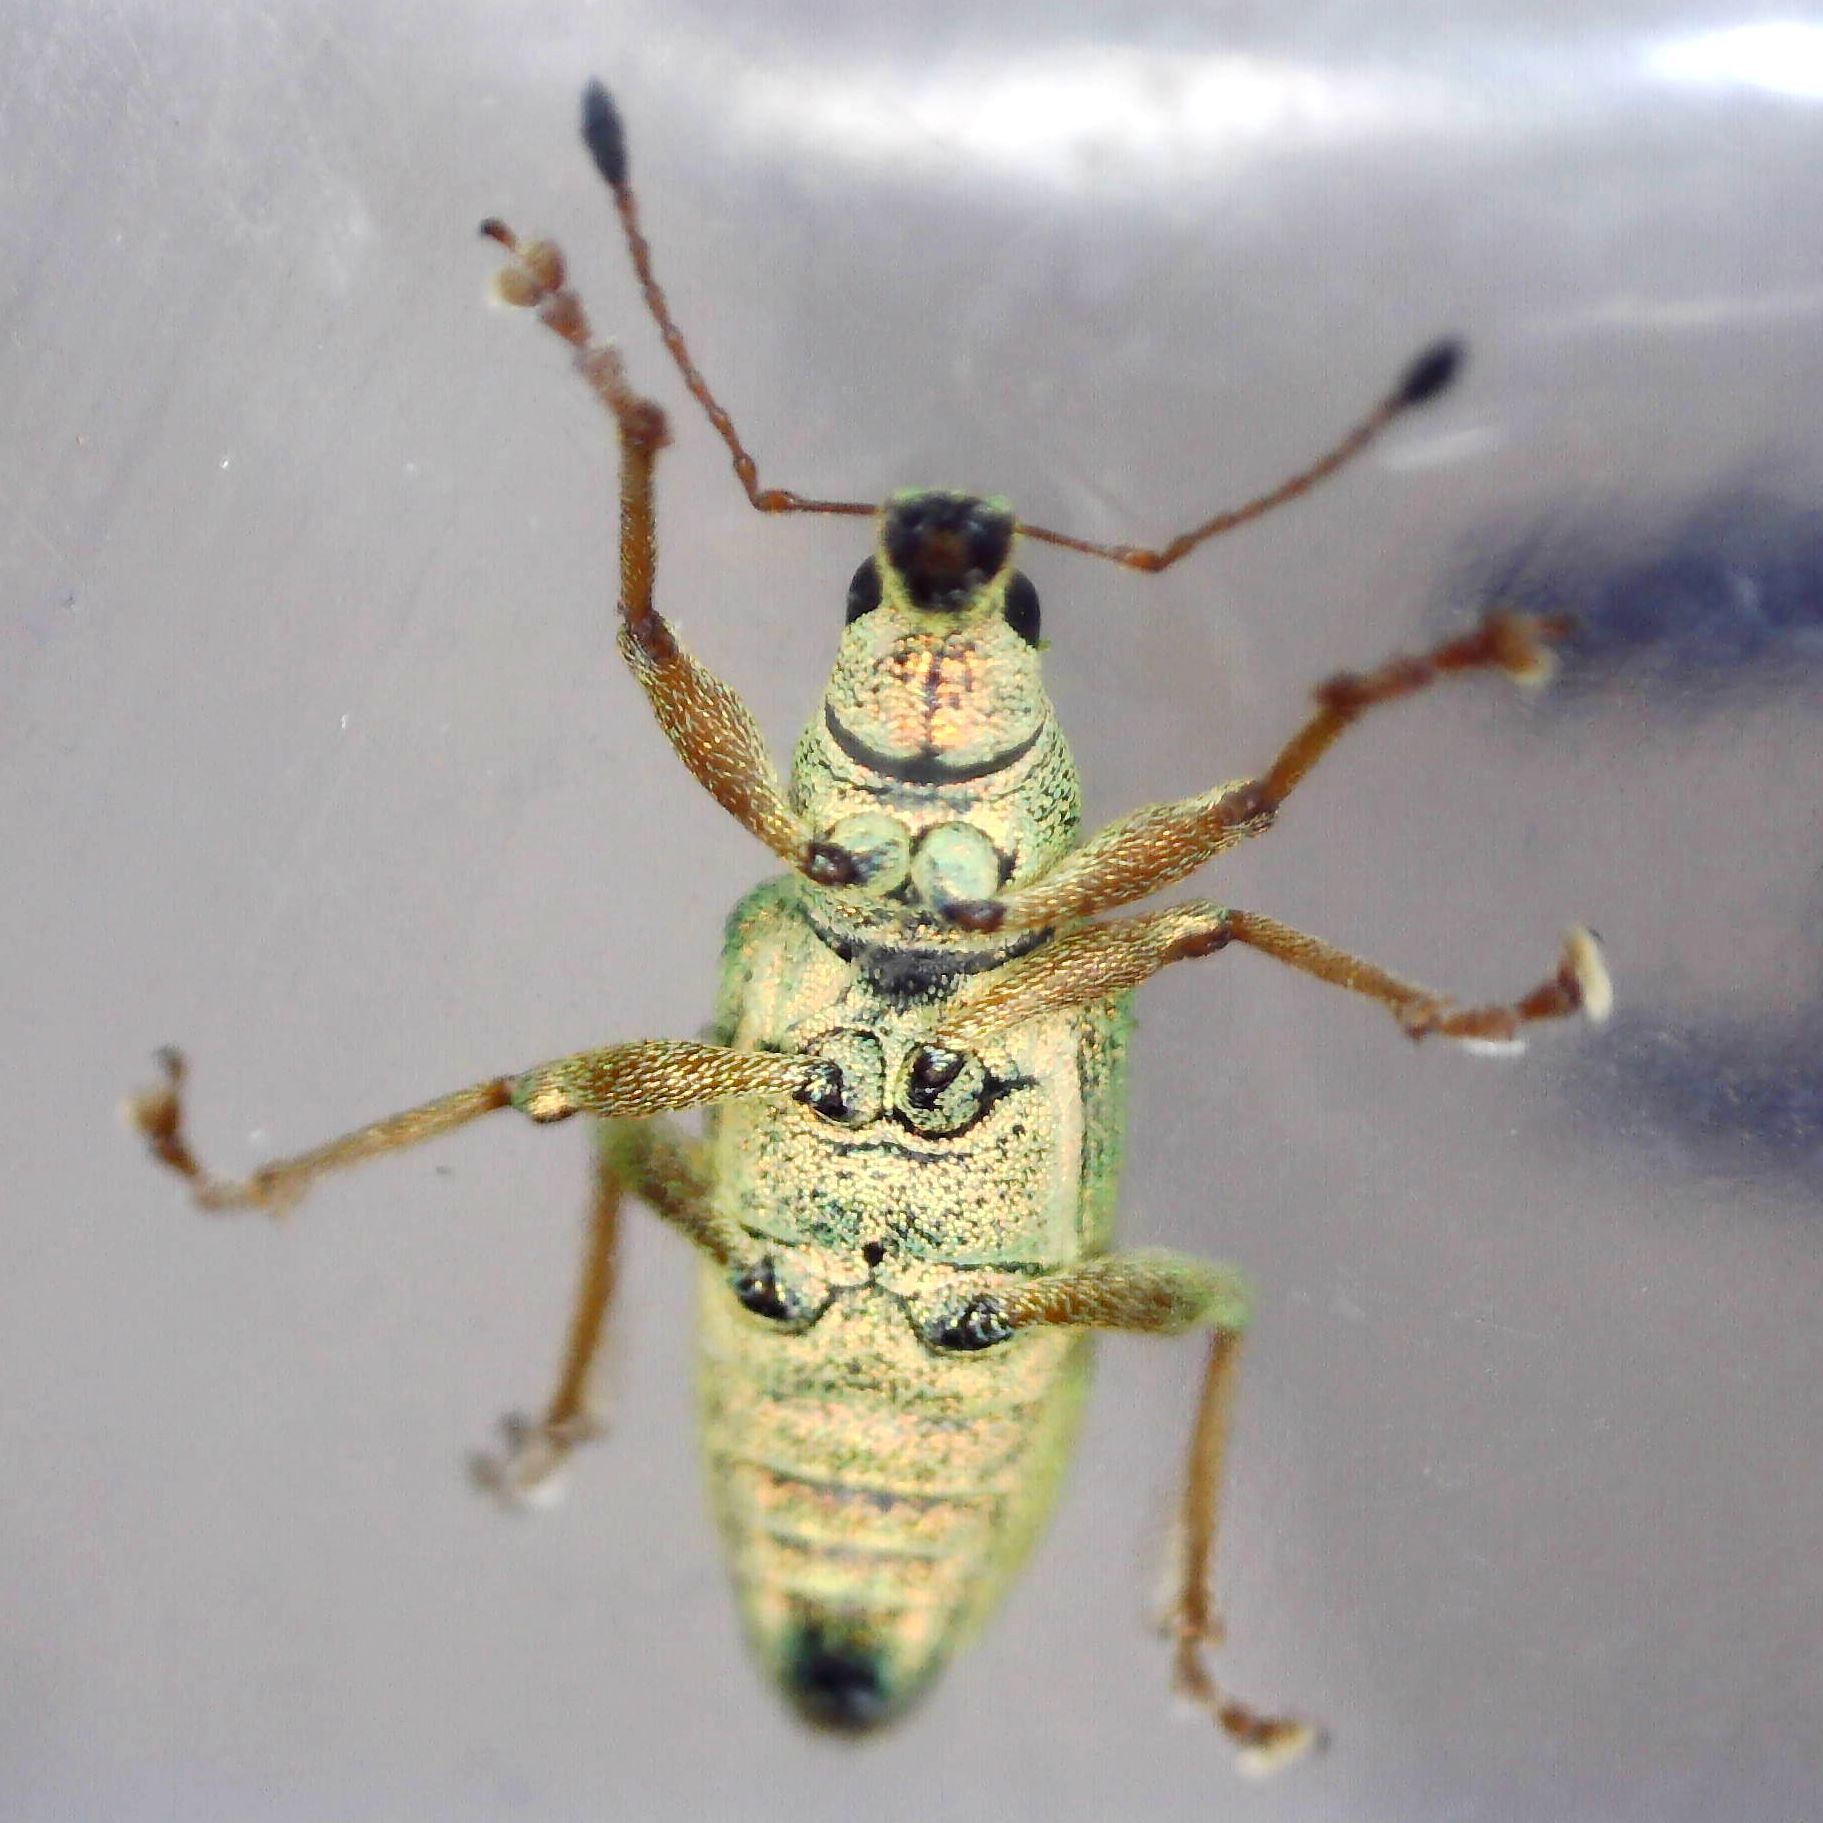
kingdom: Animalia
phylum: Arthropoda
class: Insecta
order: Coleoptera
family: Curculionidae
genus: Polydrusus
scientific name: Polydrusus formosus
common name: Weevil
